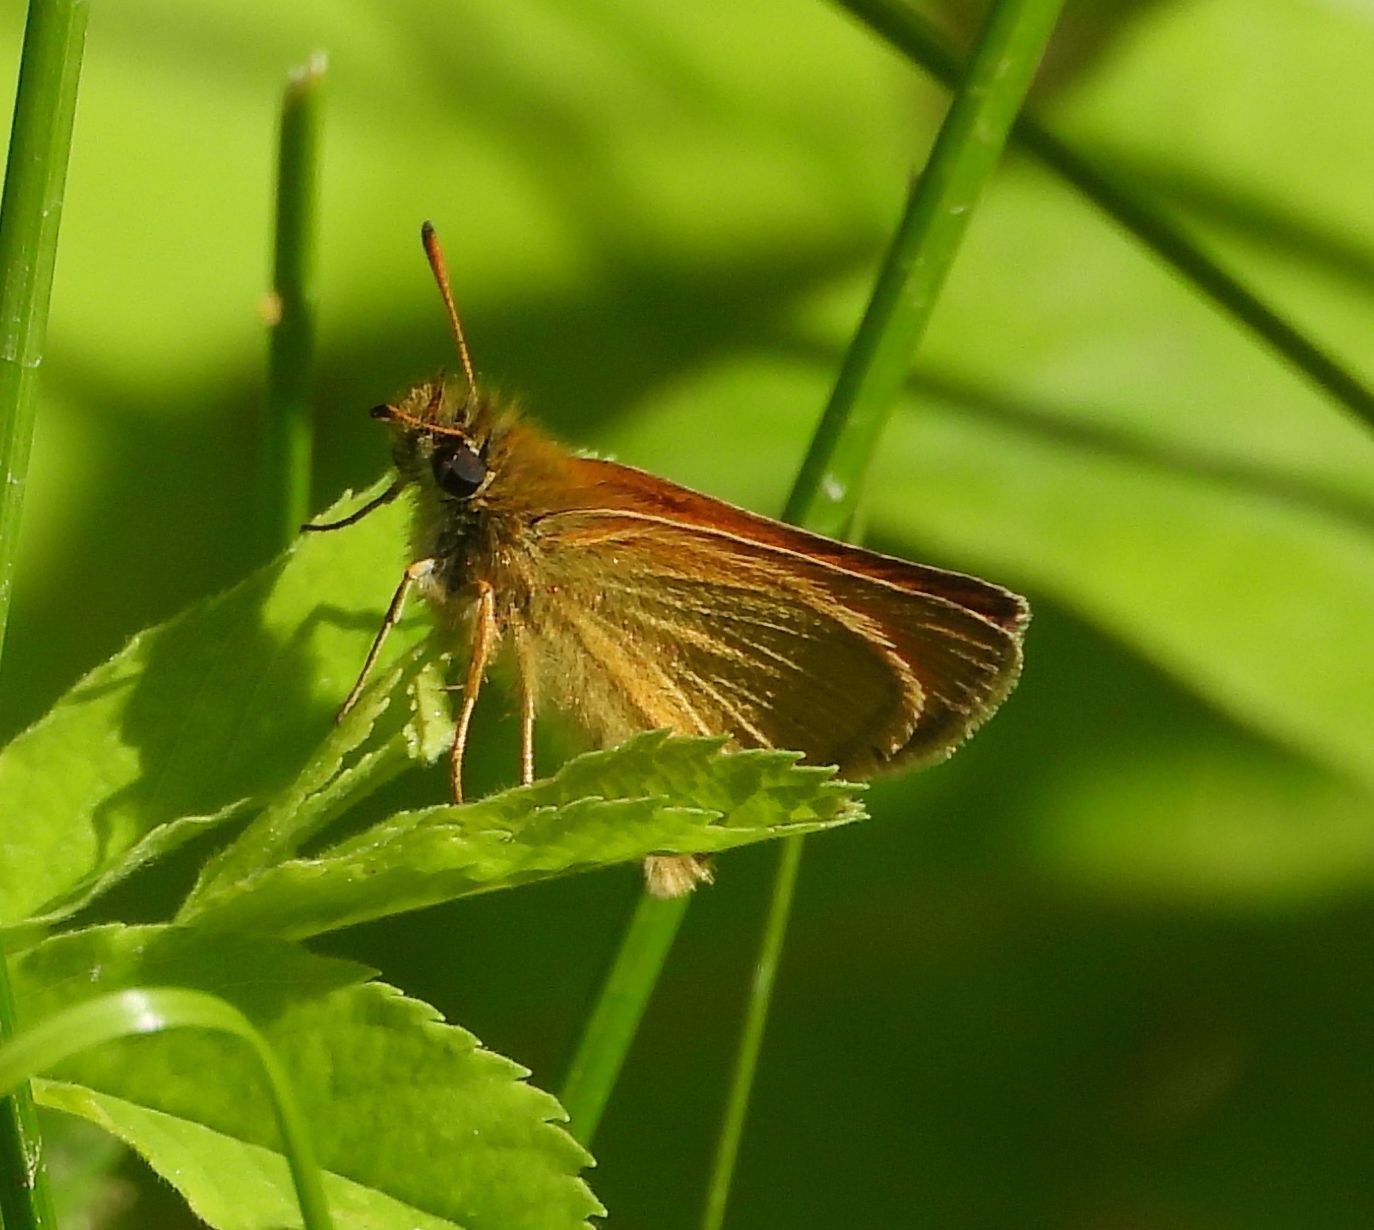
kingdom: Animalia
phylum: Arthropoda
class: Insecta
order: Lepidoptera
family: Hesperiidae
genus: Thymelicus
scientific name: Thymelicus lineola
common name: Essex skipper
